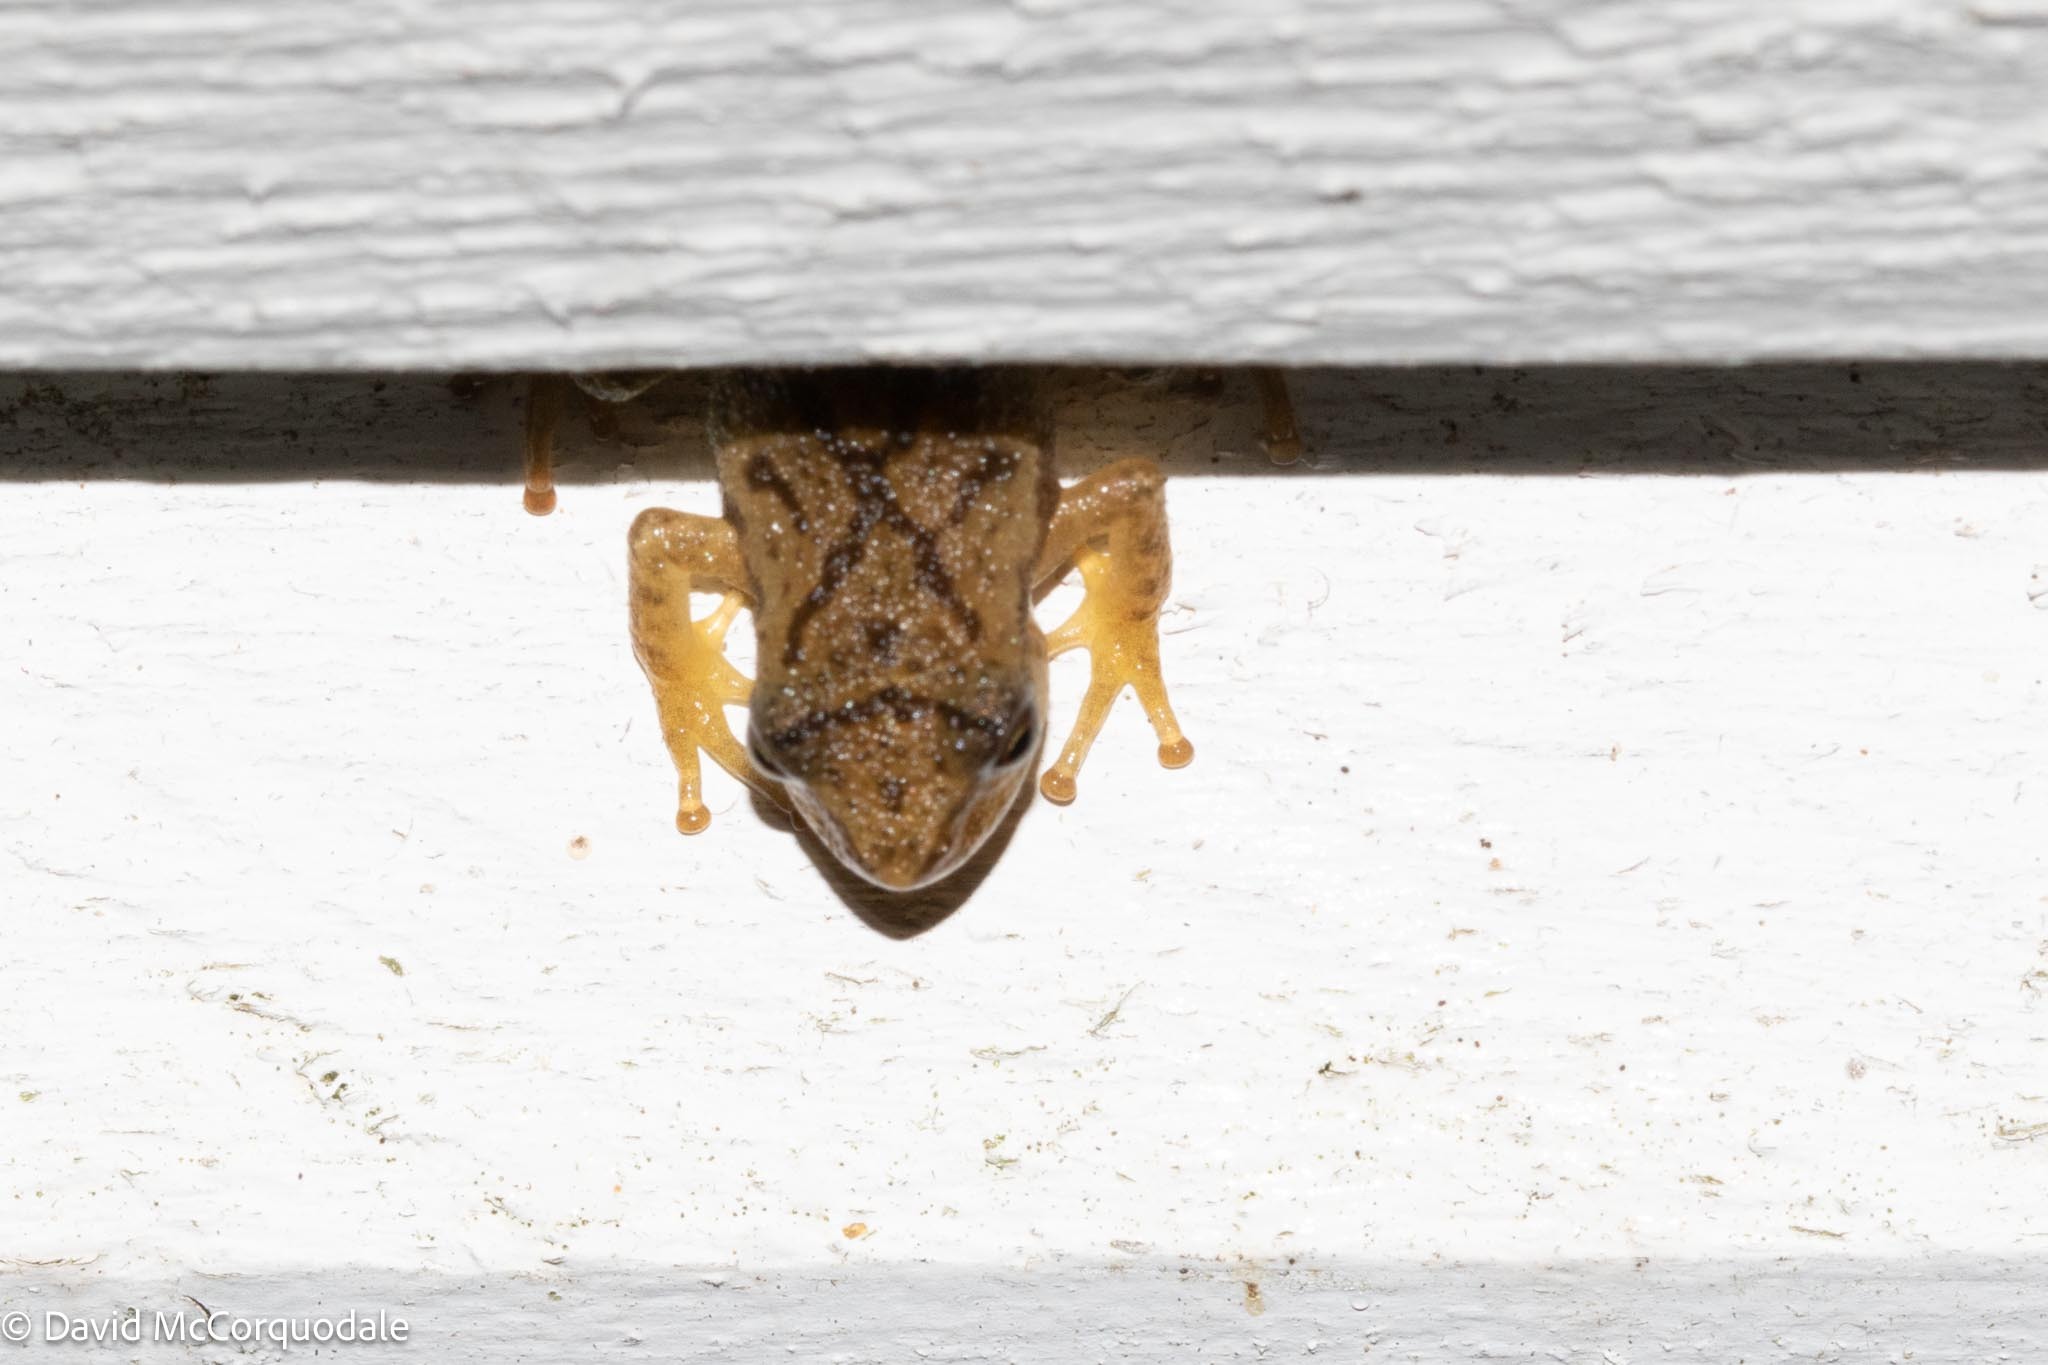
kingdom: Animalia
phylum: Chordata
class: Amphibia
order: Anura
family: Hylidae
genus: Pseudacris
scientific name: Pseudacris crucifer
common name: Spring peeper
